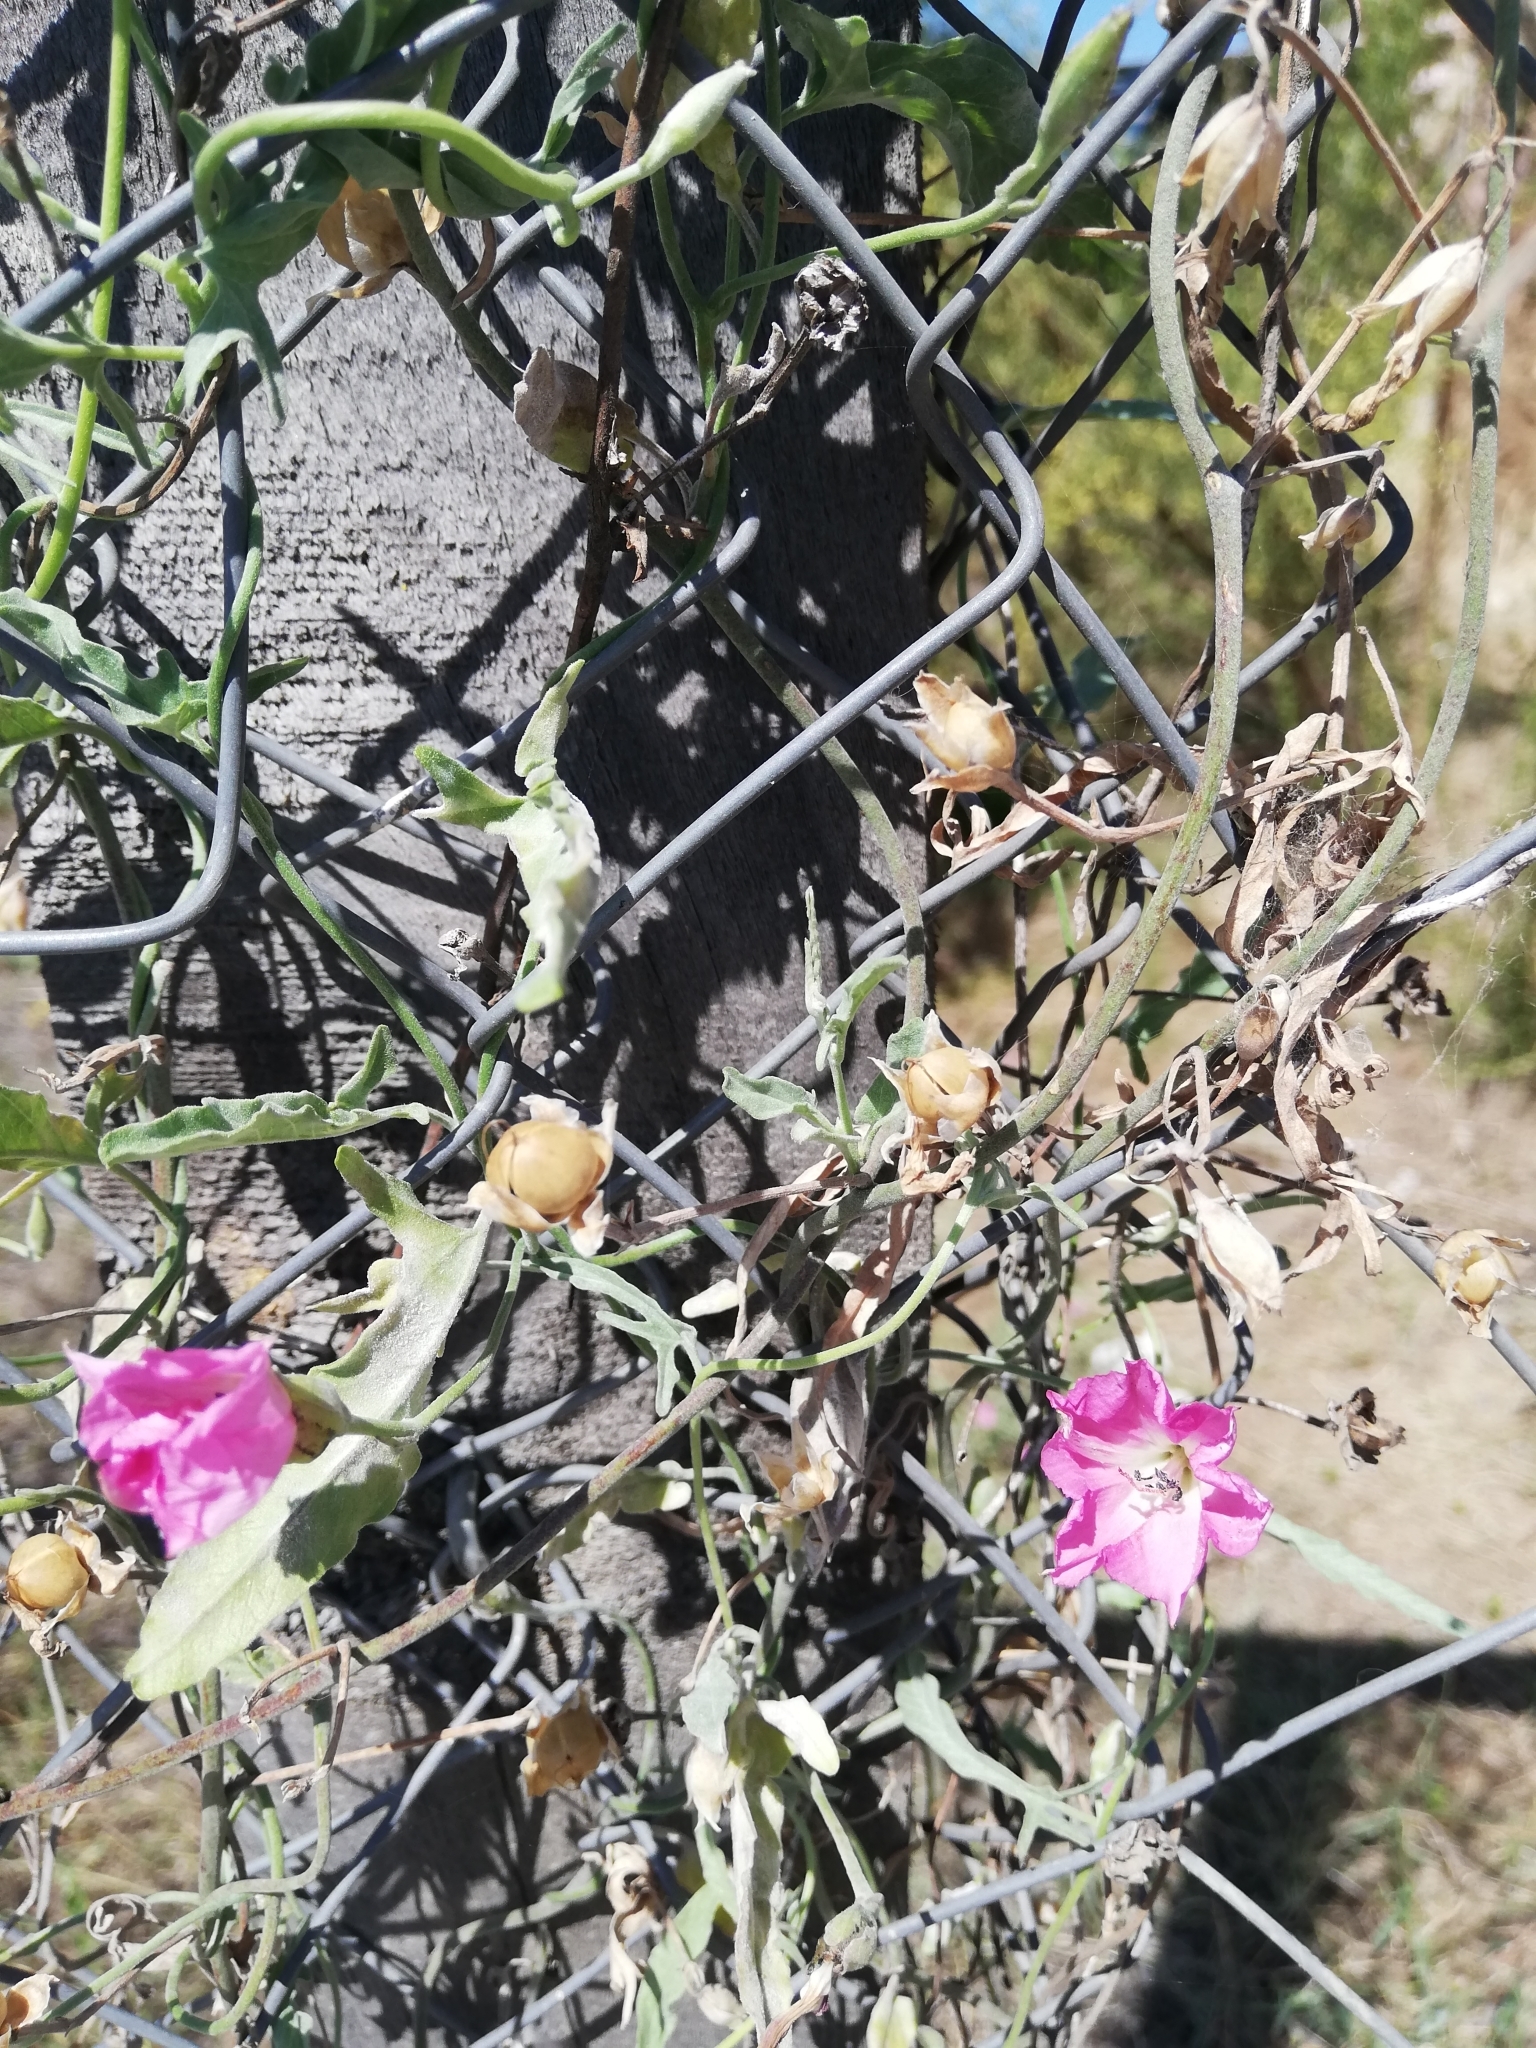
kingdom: Plantae
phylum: Tracheophyta
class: Magnoliopsida
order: Solanales
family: Convolvulaceae
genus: Convolvulus
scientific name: Convolvulus arvensis
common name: Field bindweed
